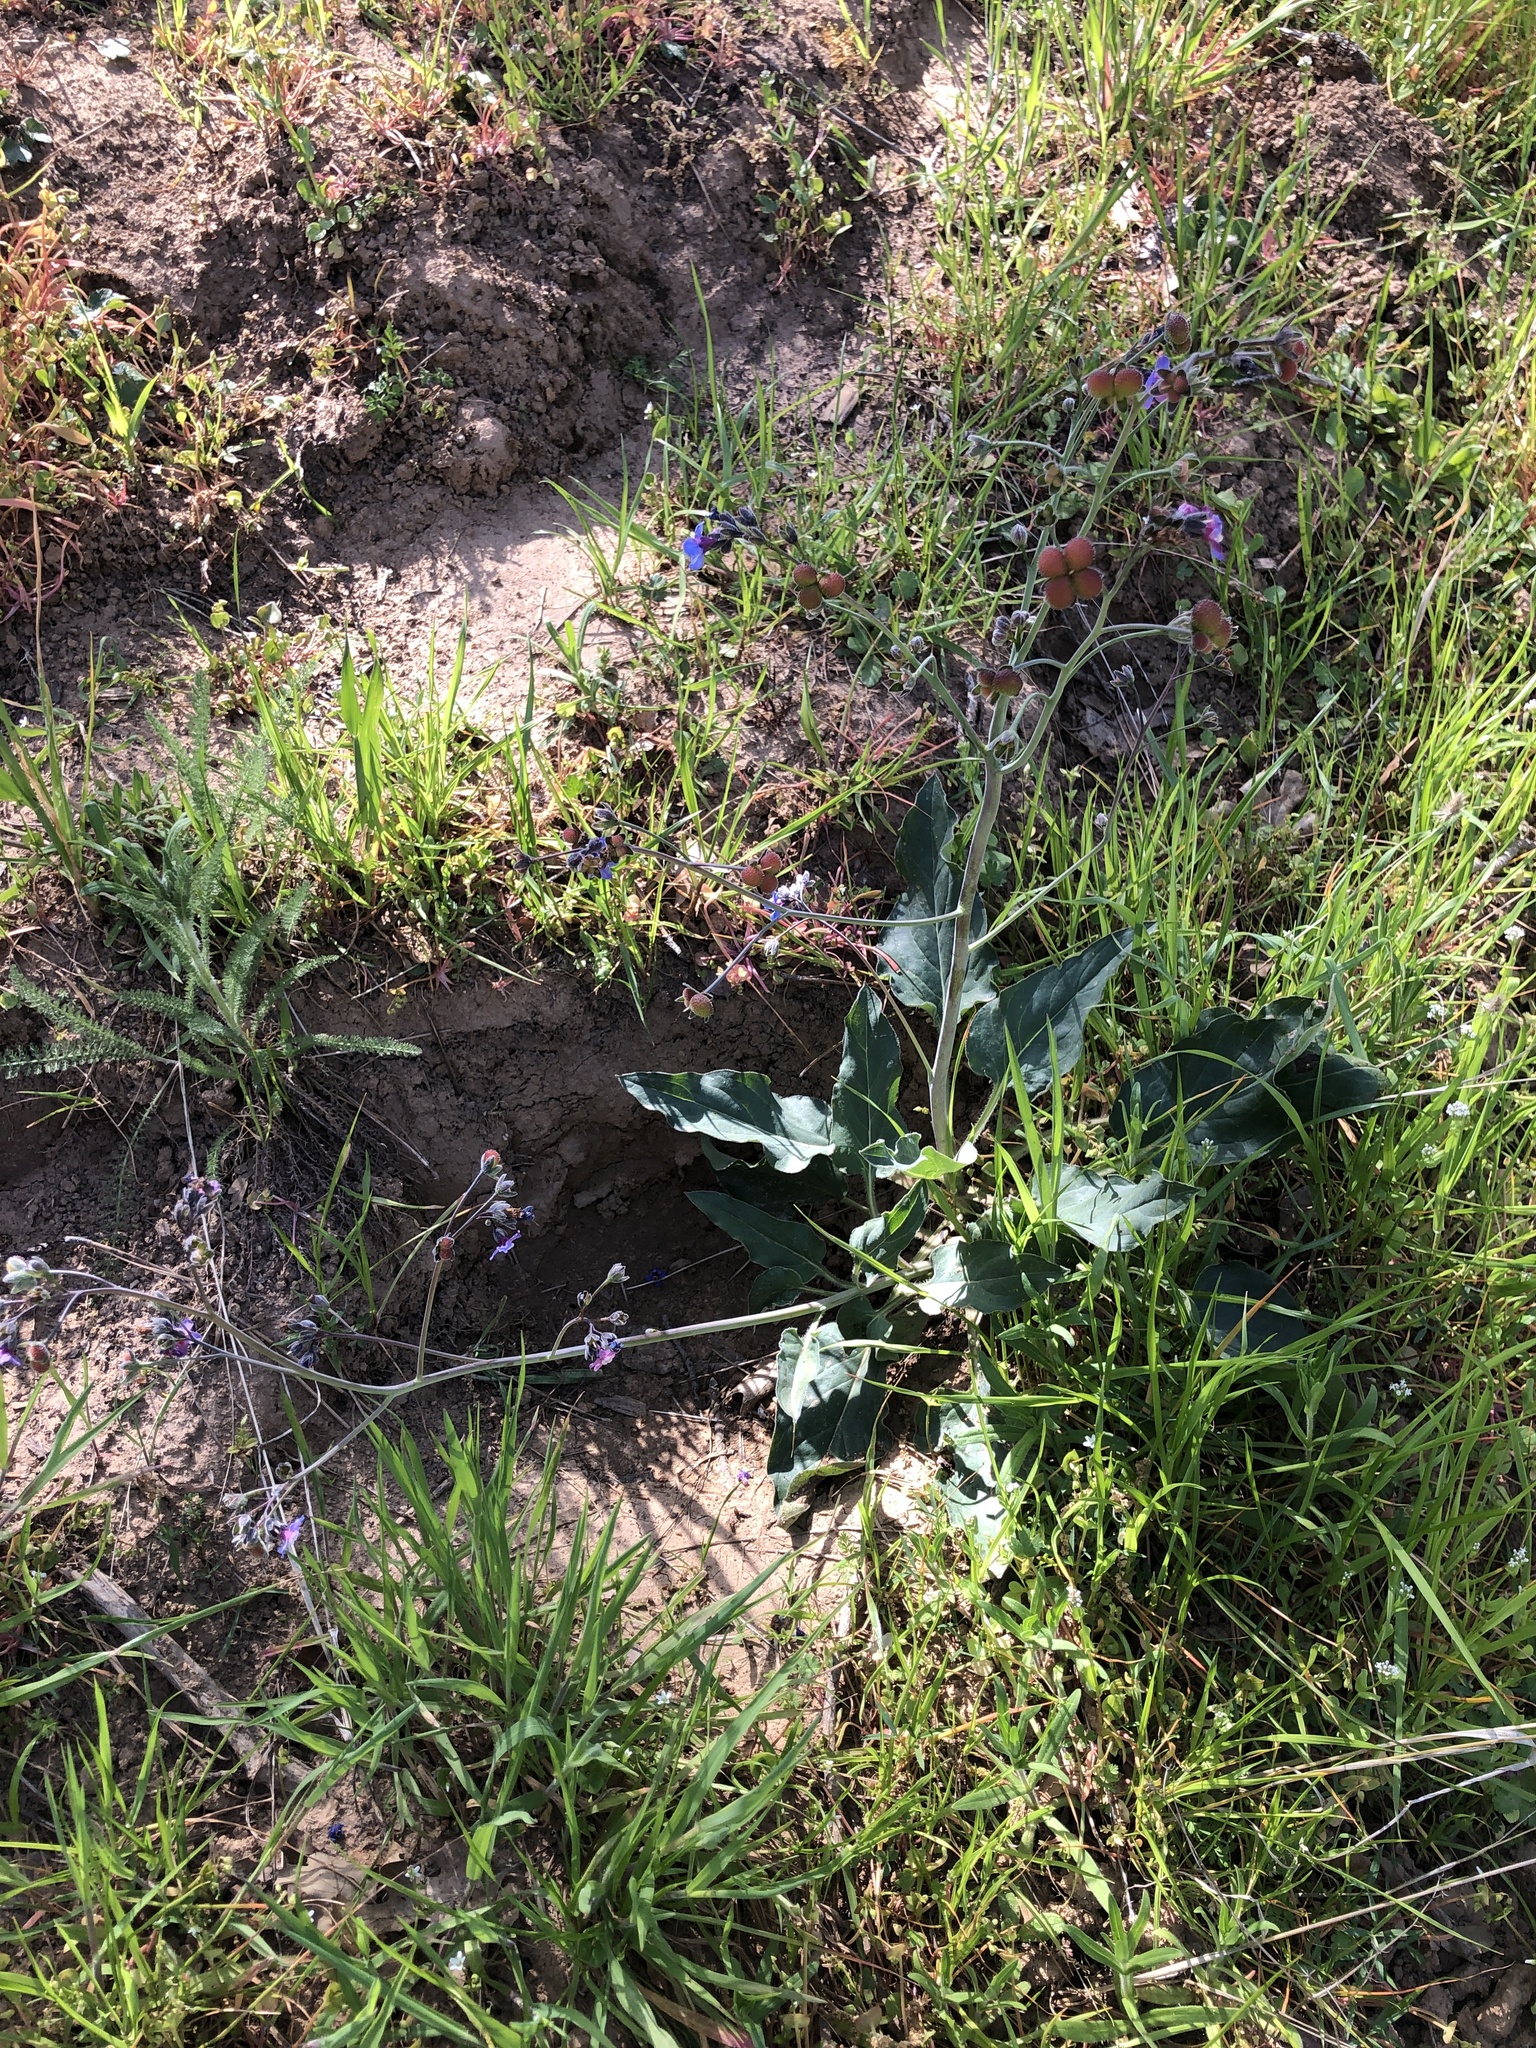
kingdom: Plantae
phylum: Tracheophyta
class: Magnoliopsida
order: Boraginales
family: Boraginaceae
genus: Adelinia
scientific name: Adelinia grande
